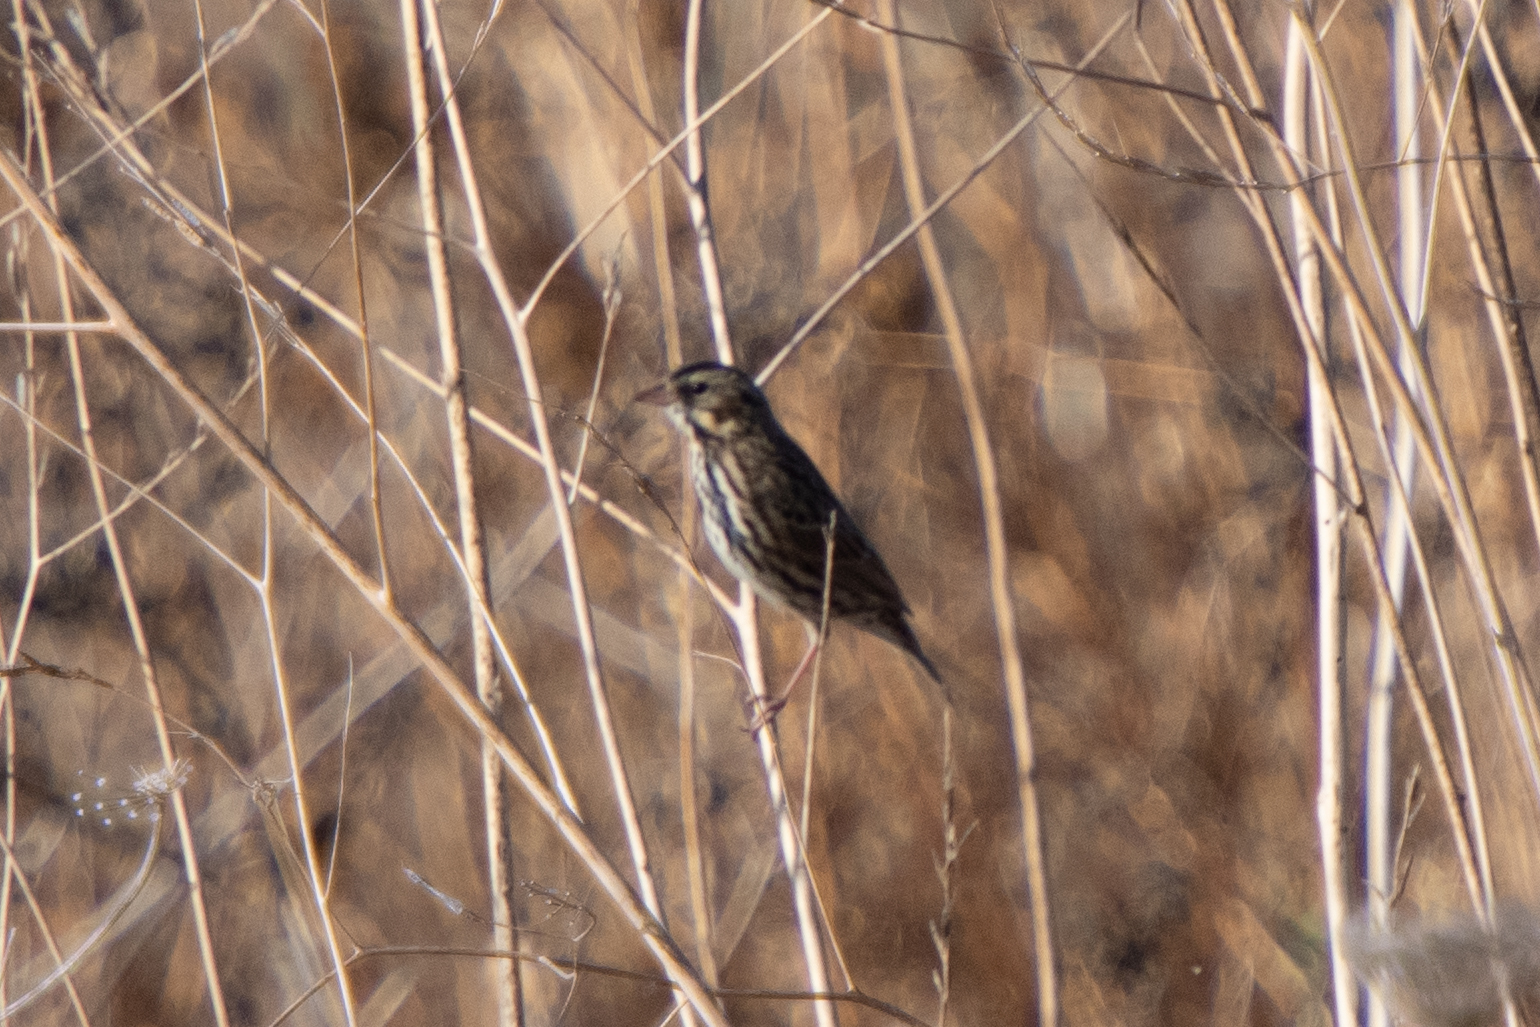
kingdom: Animalia
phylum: Chordata
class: Aves
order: Passeriformes
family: Passerellidae
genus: Passerculus
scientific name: Passerculus sandwichensis
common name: Savannah sparrow
